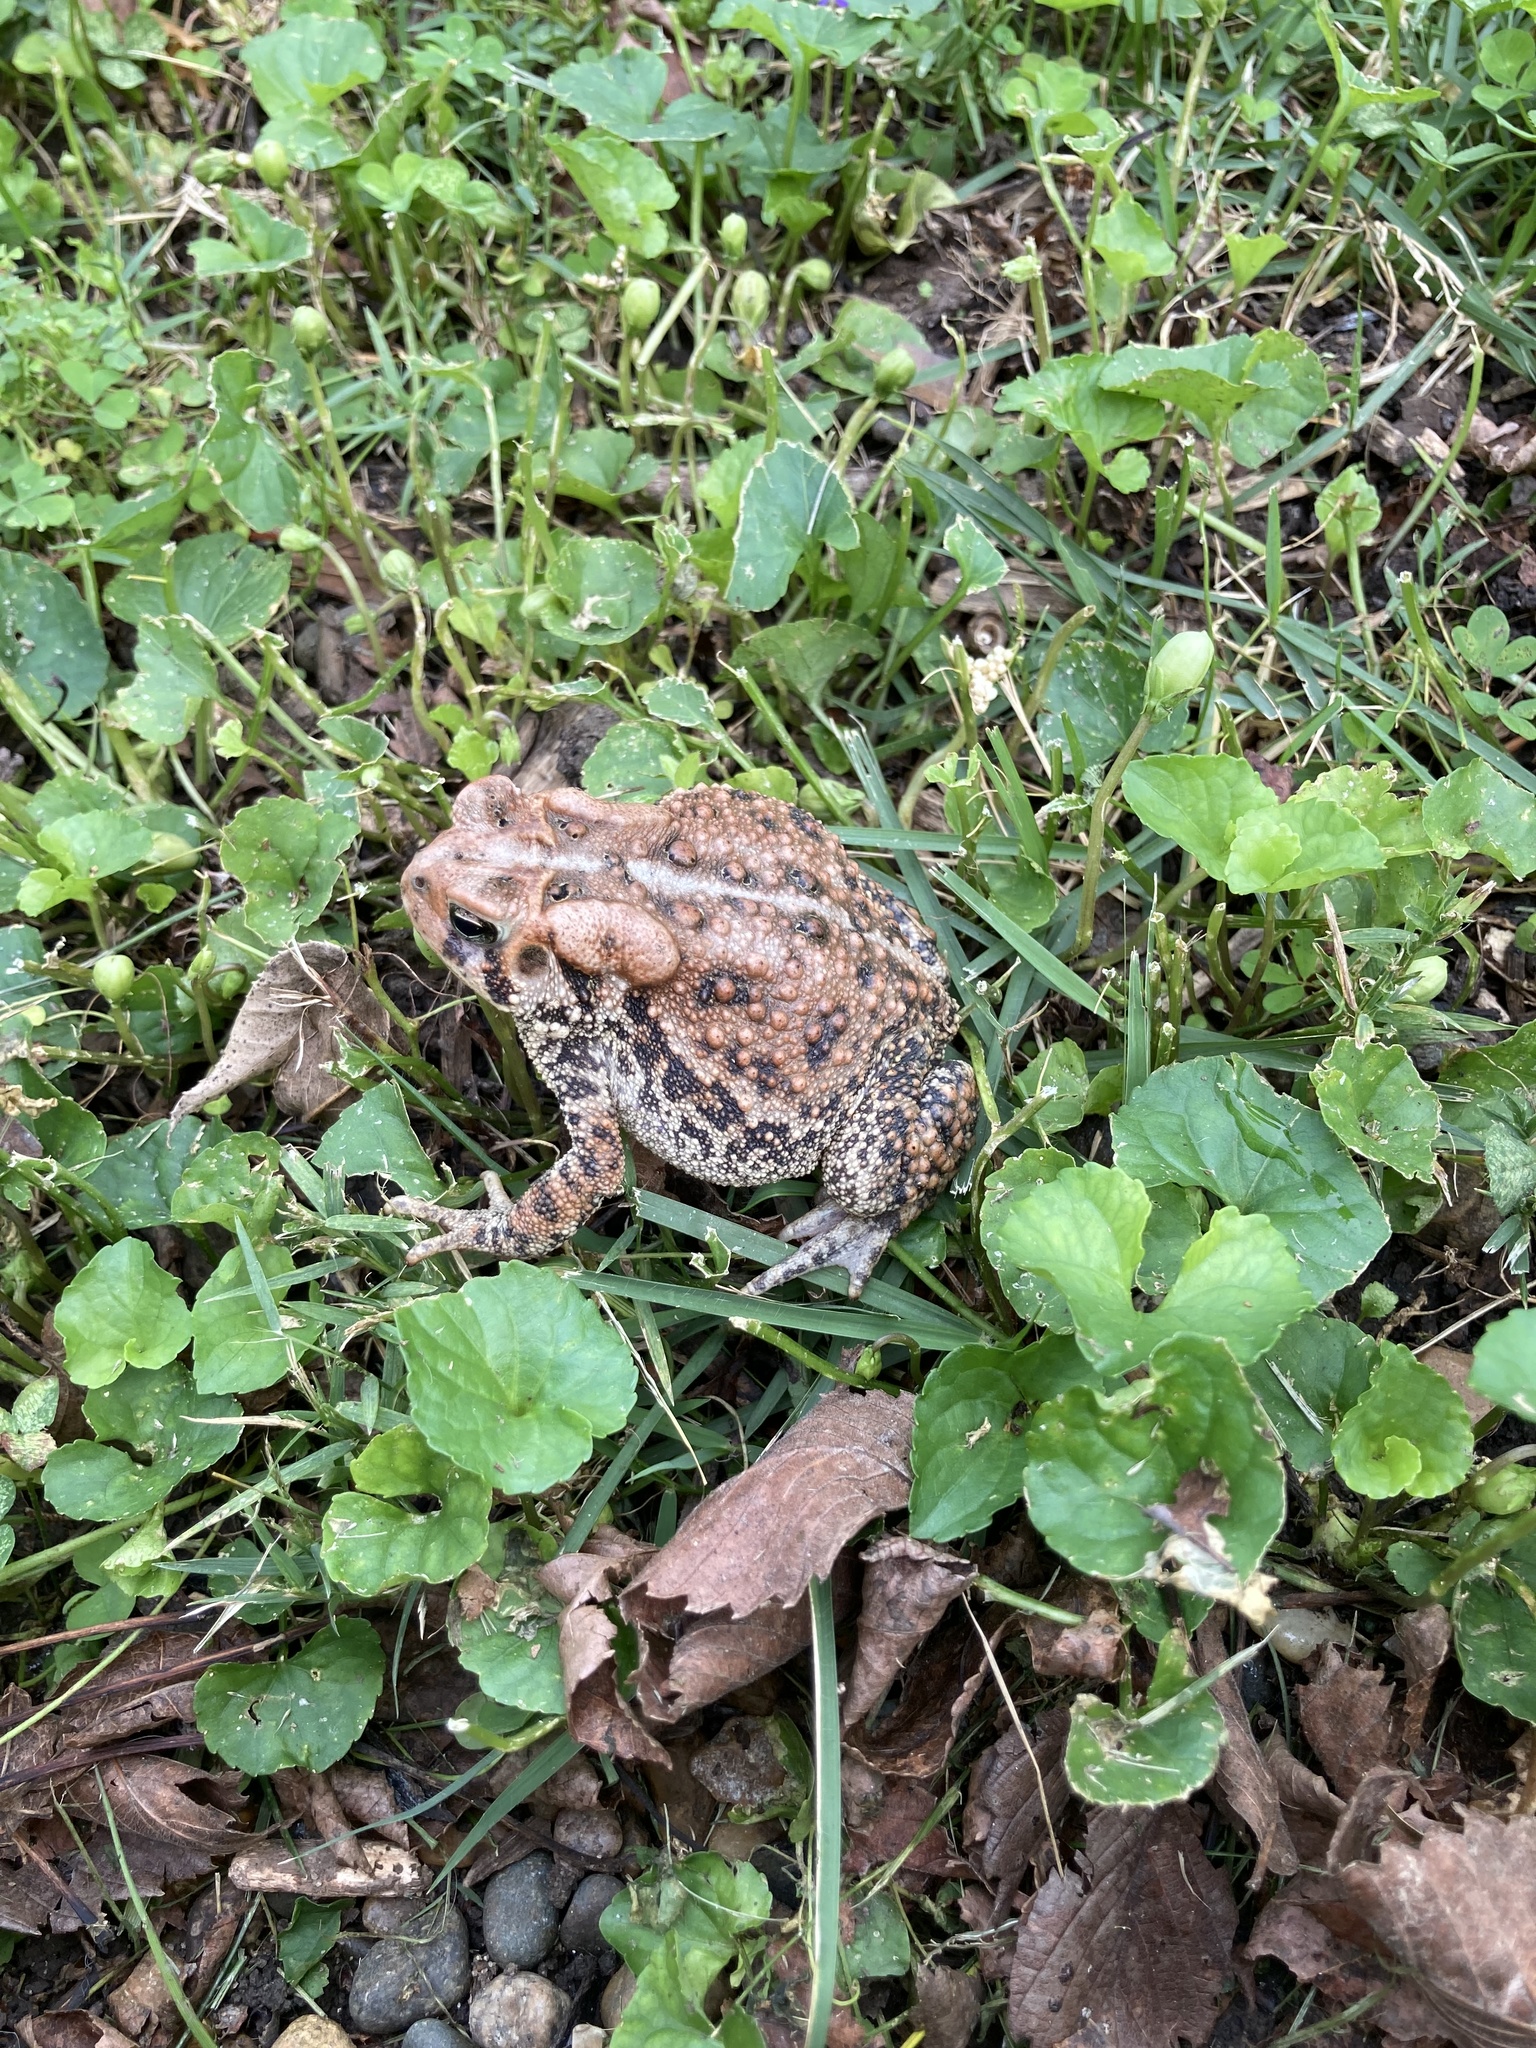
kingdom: Animalia
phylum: Chordata
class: Amphibia
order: Anura
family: Bufonidae
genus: Anaxyrus
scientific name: Anaxyrus americanus
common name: American toad
